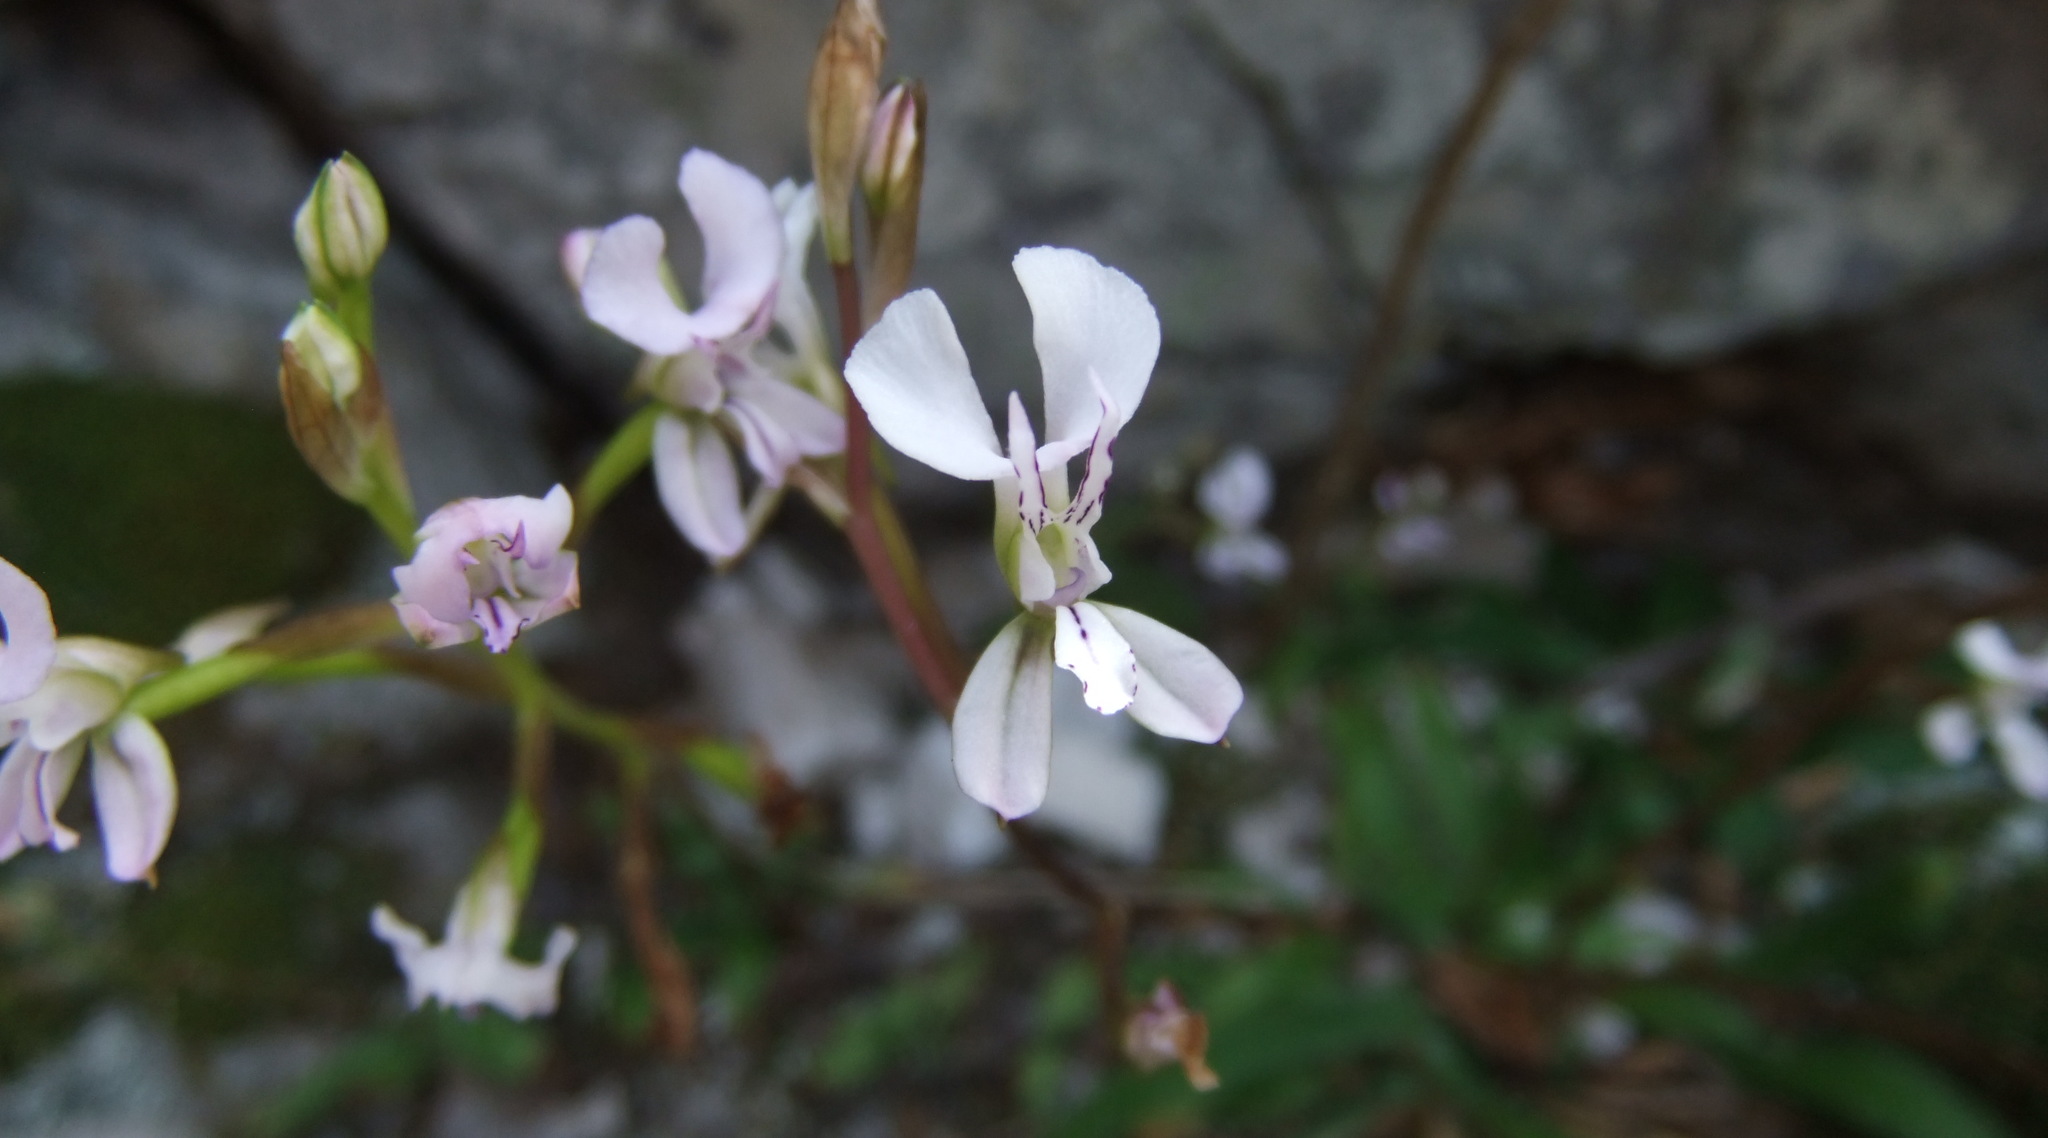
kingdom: Plantae
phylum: Tracheophyta
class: Liliopsida
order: Asparagales
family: Orchidaceae
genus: Disa
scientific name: Disa sagittalis
